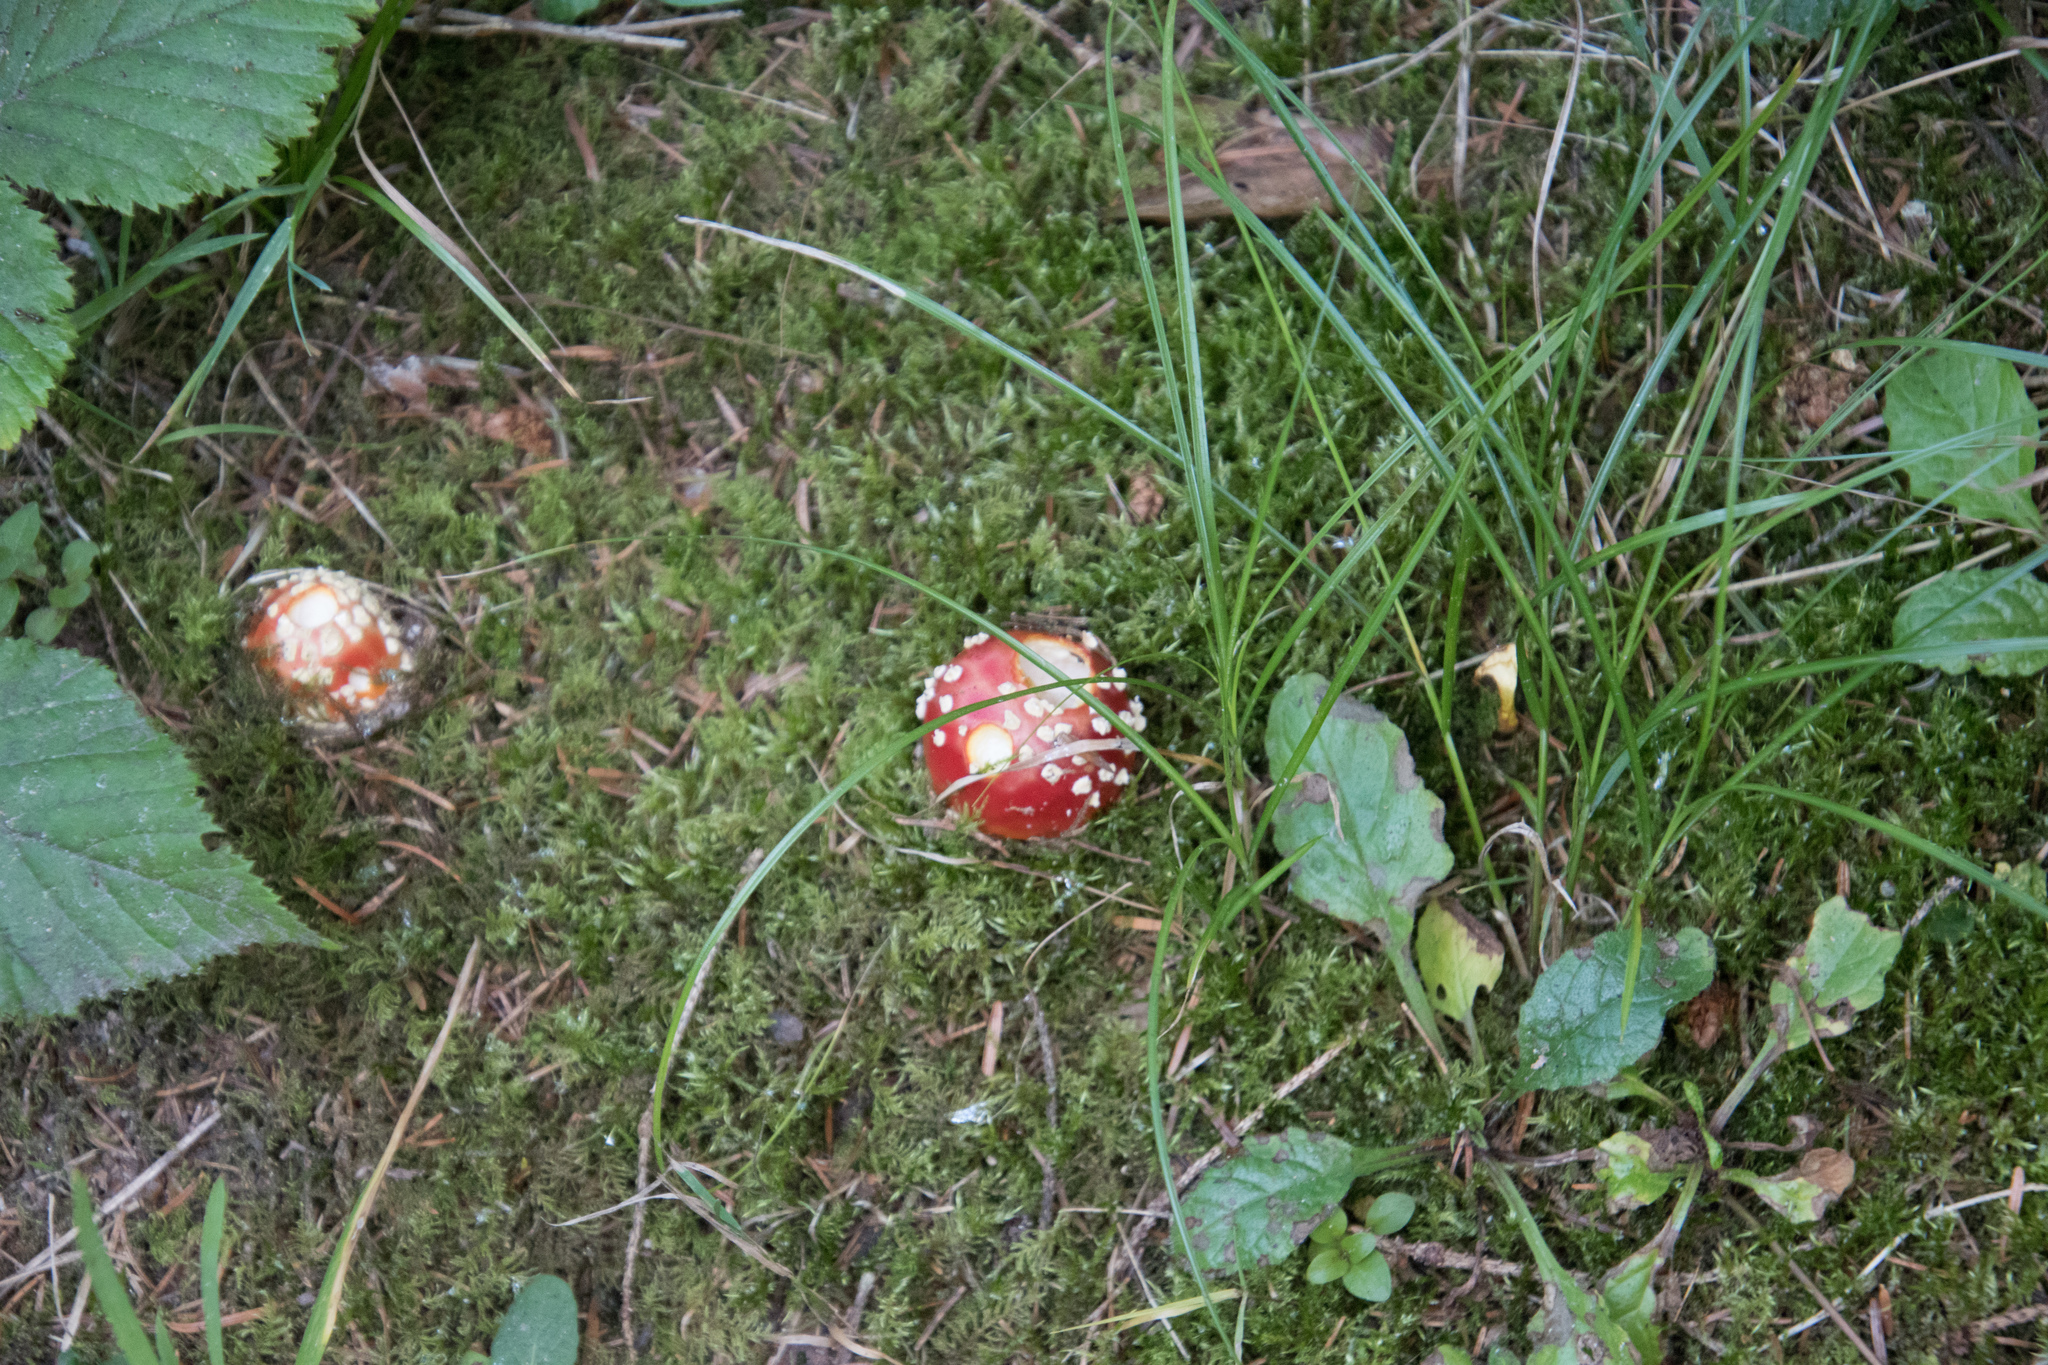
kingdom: Fungi
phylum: Basidiomycota
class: Agaricomycetes
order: Agaricales
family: Amanitaceae
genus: Amanita
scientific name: Amanita muscaria
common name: Fly agaric
